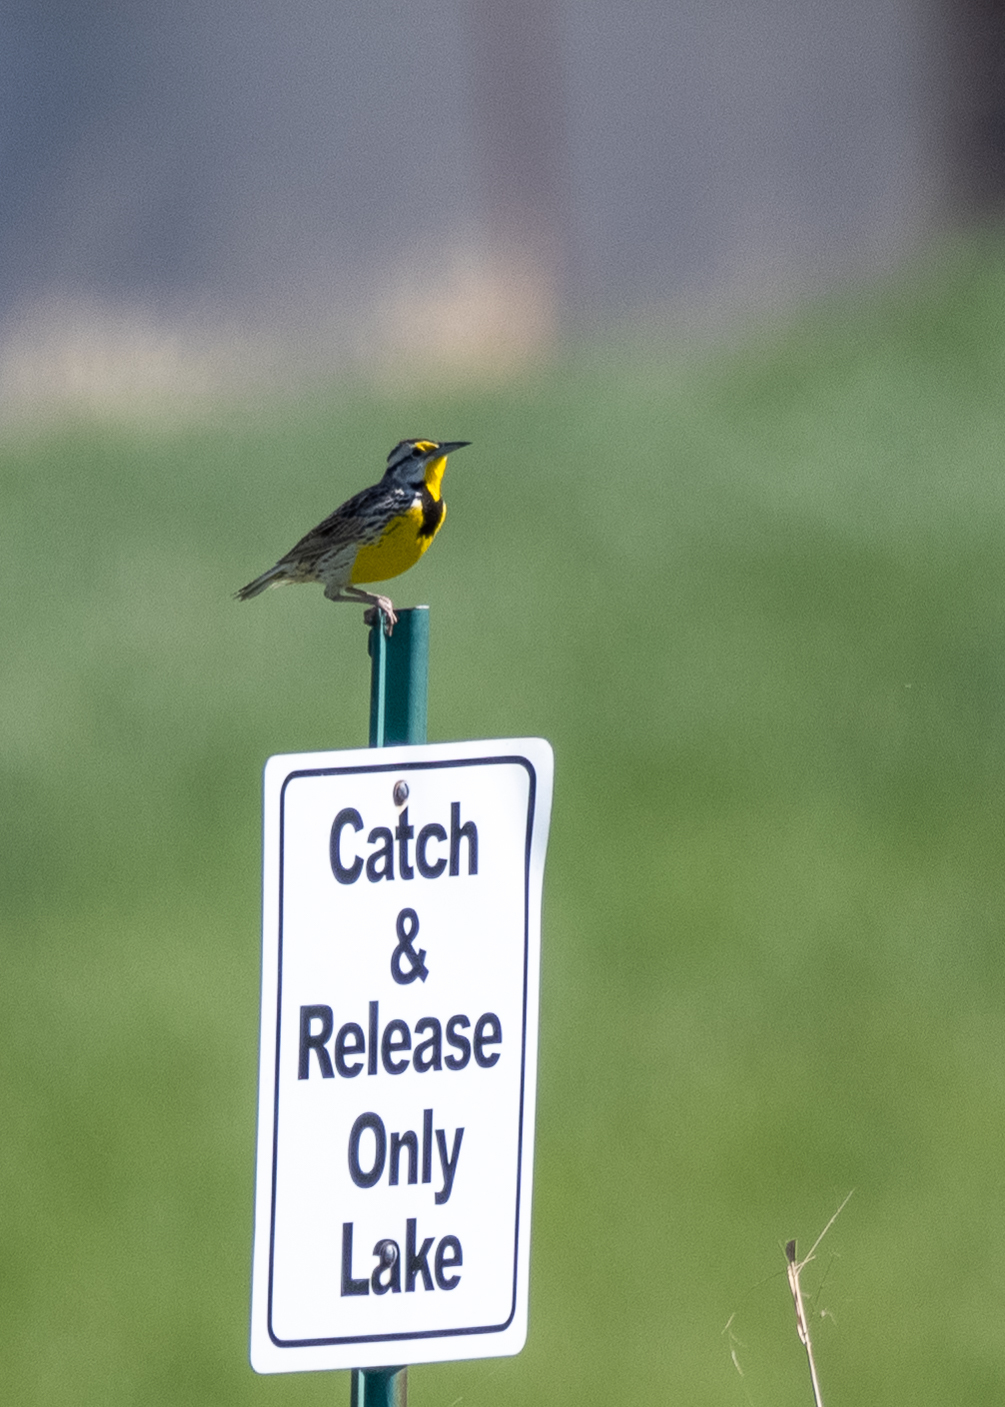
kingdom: Animalia
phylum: Chordata
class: Aves
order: Passeriformes
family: Icteridae
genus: Sturnella
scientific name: Sturnella neglecta
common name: Western meadowlark
